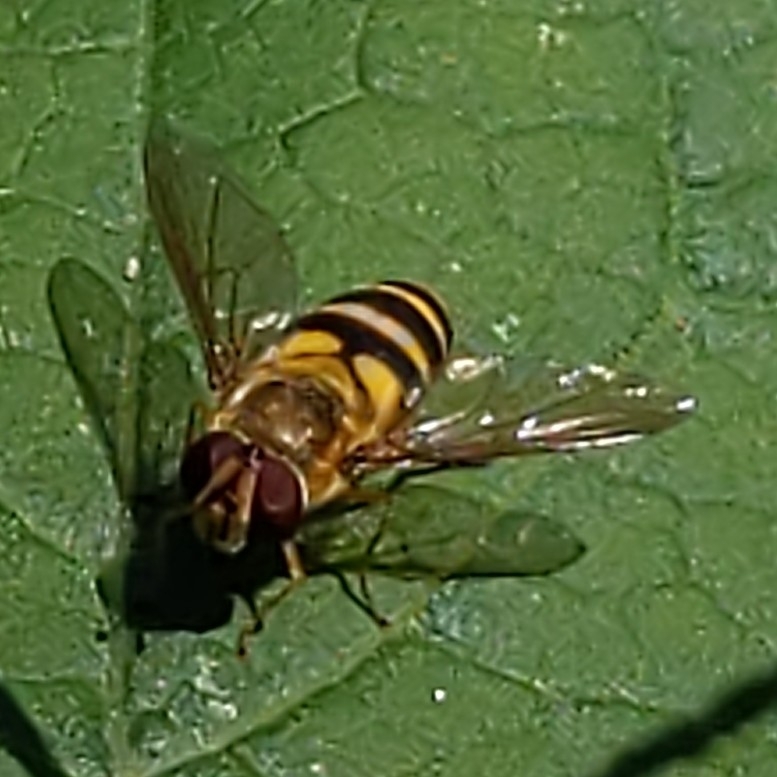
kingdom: Animalia
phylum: Arthropoda
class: Insecta
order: Diptera
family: Syrphidae
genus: Syrphus
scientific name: Syrphus
